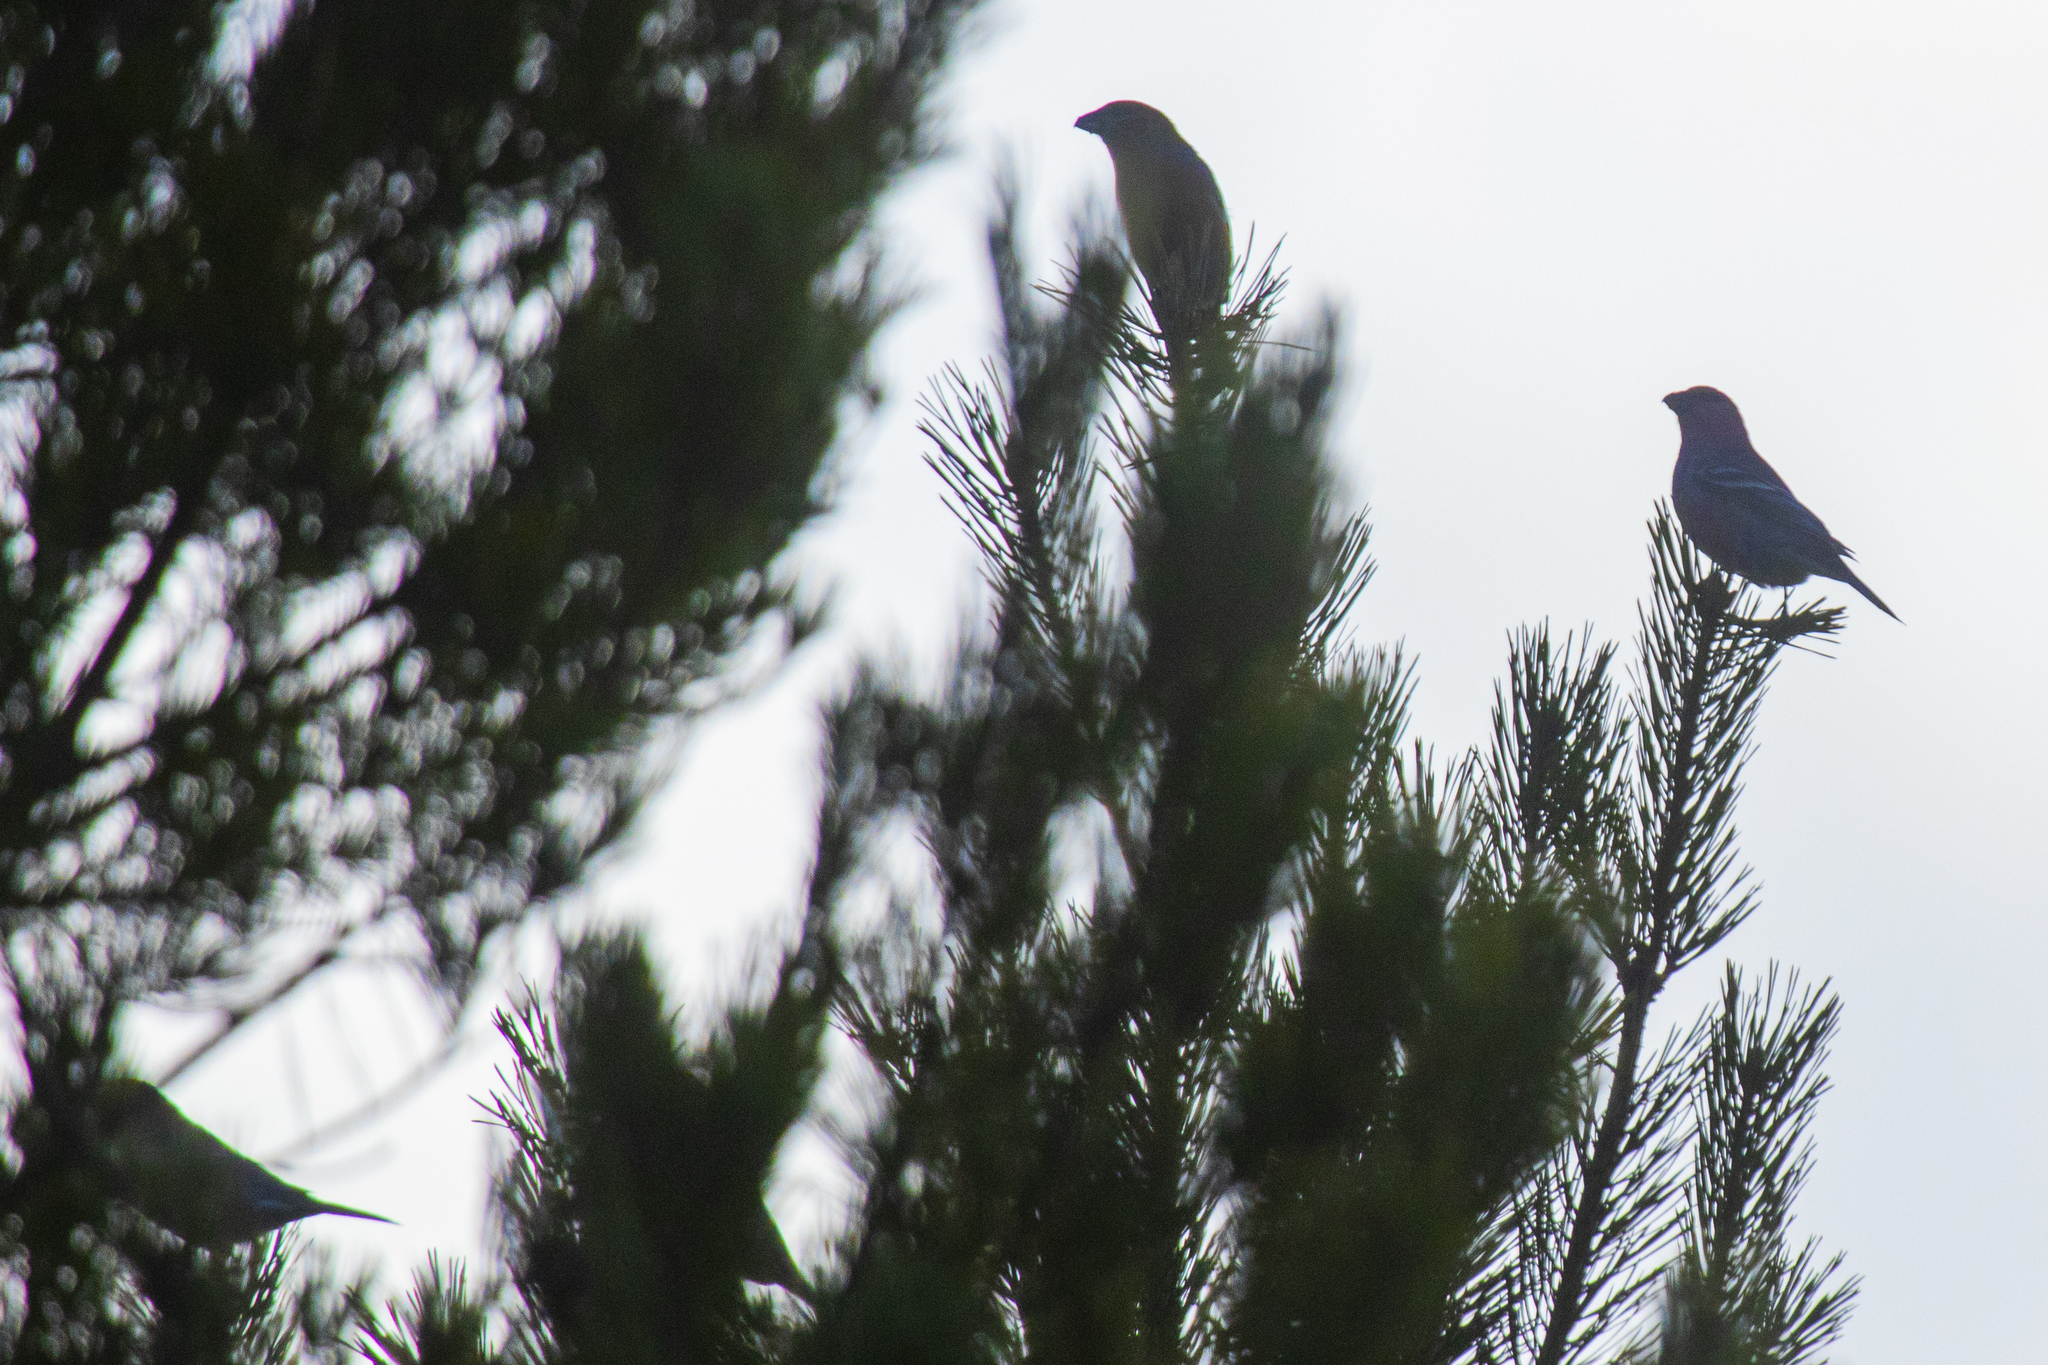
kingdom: Animalia
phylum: Chordata
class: Aves
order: Passeriformes
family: Fringillidae
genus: Pinicola
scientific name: Pinicola enucleator
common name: Pine grosbeak
